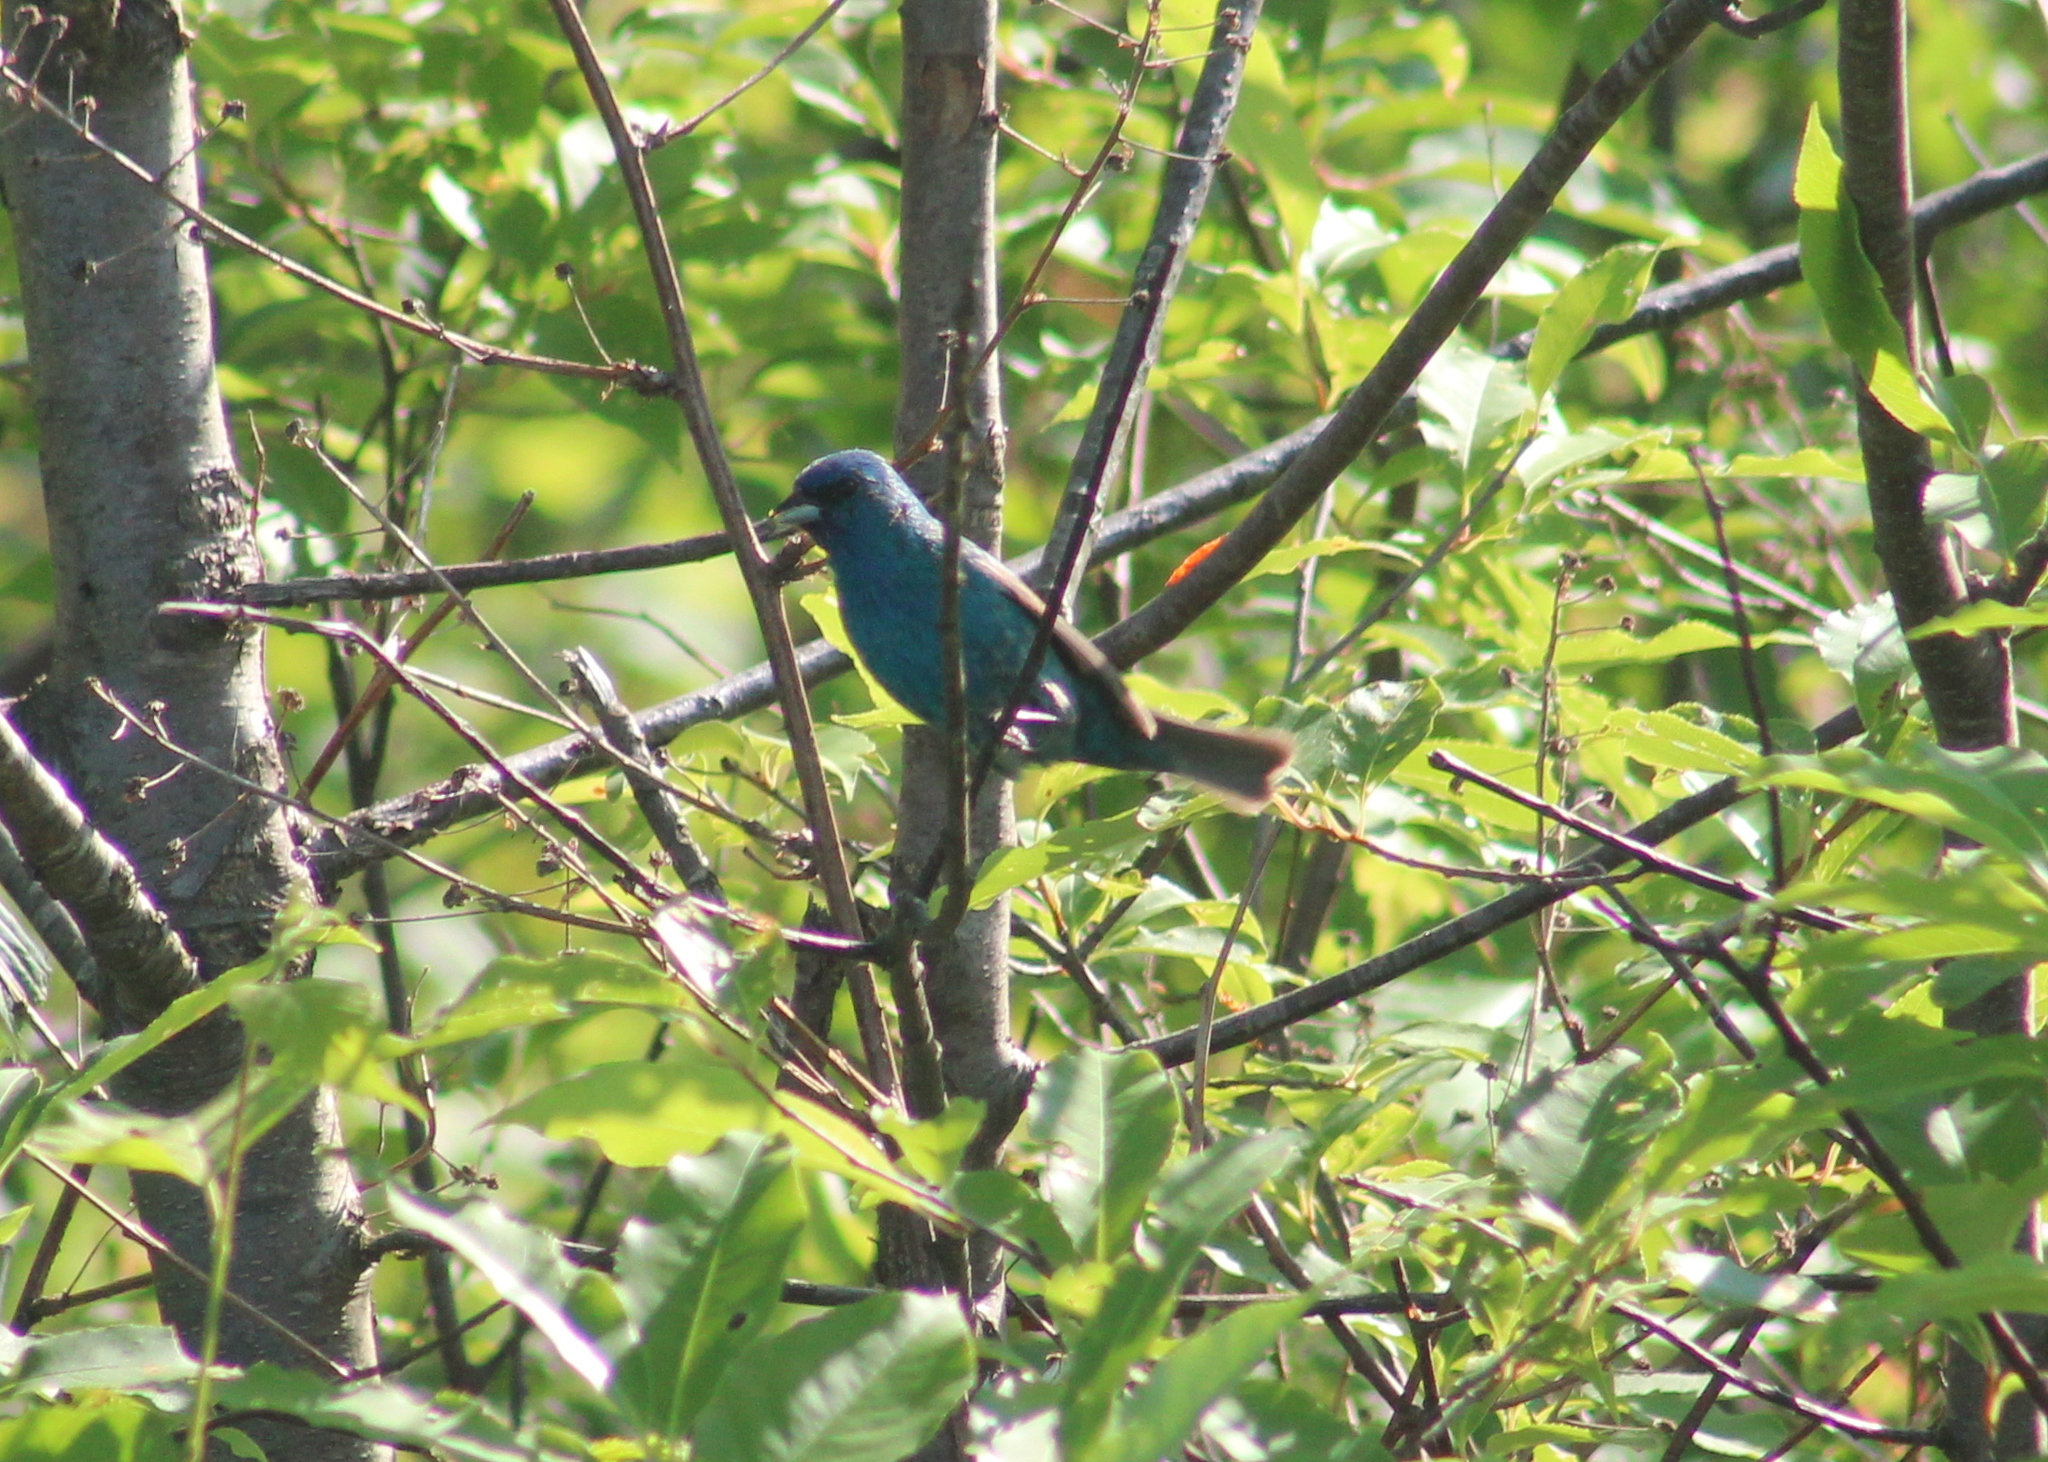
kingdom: Animalia
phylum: Chordata
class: Aves
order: Passeriformes
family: Cardinalidae
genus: Passerina
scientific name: Passerina cyanea
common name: Indigo bunting
